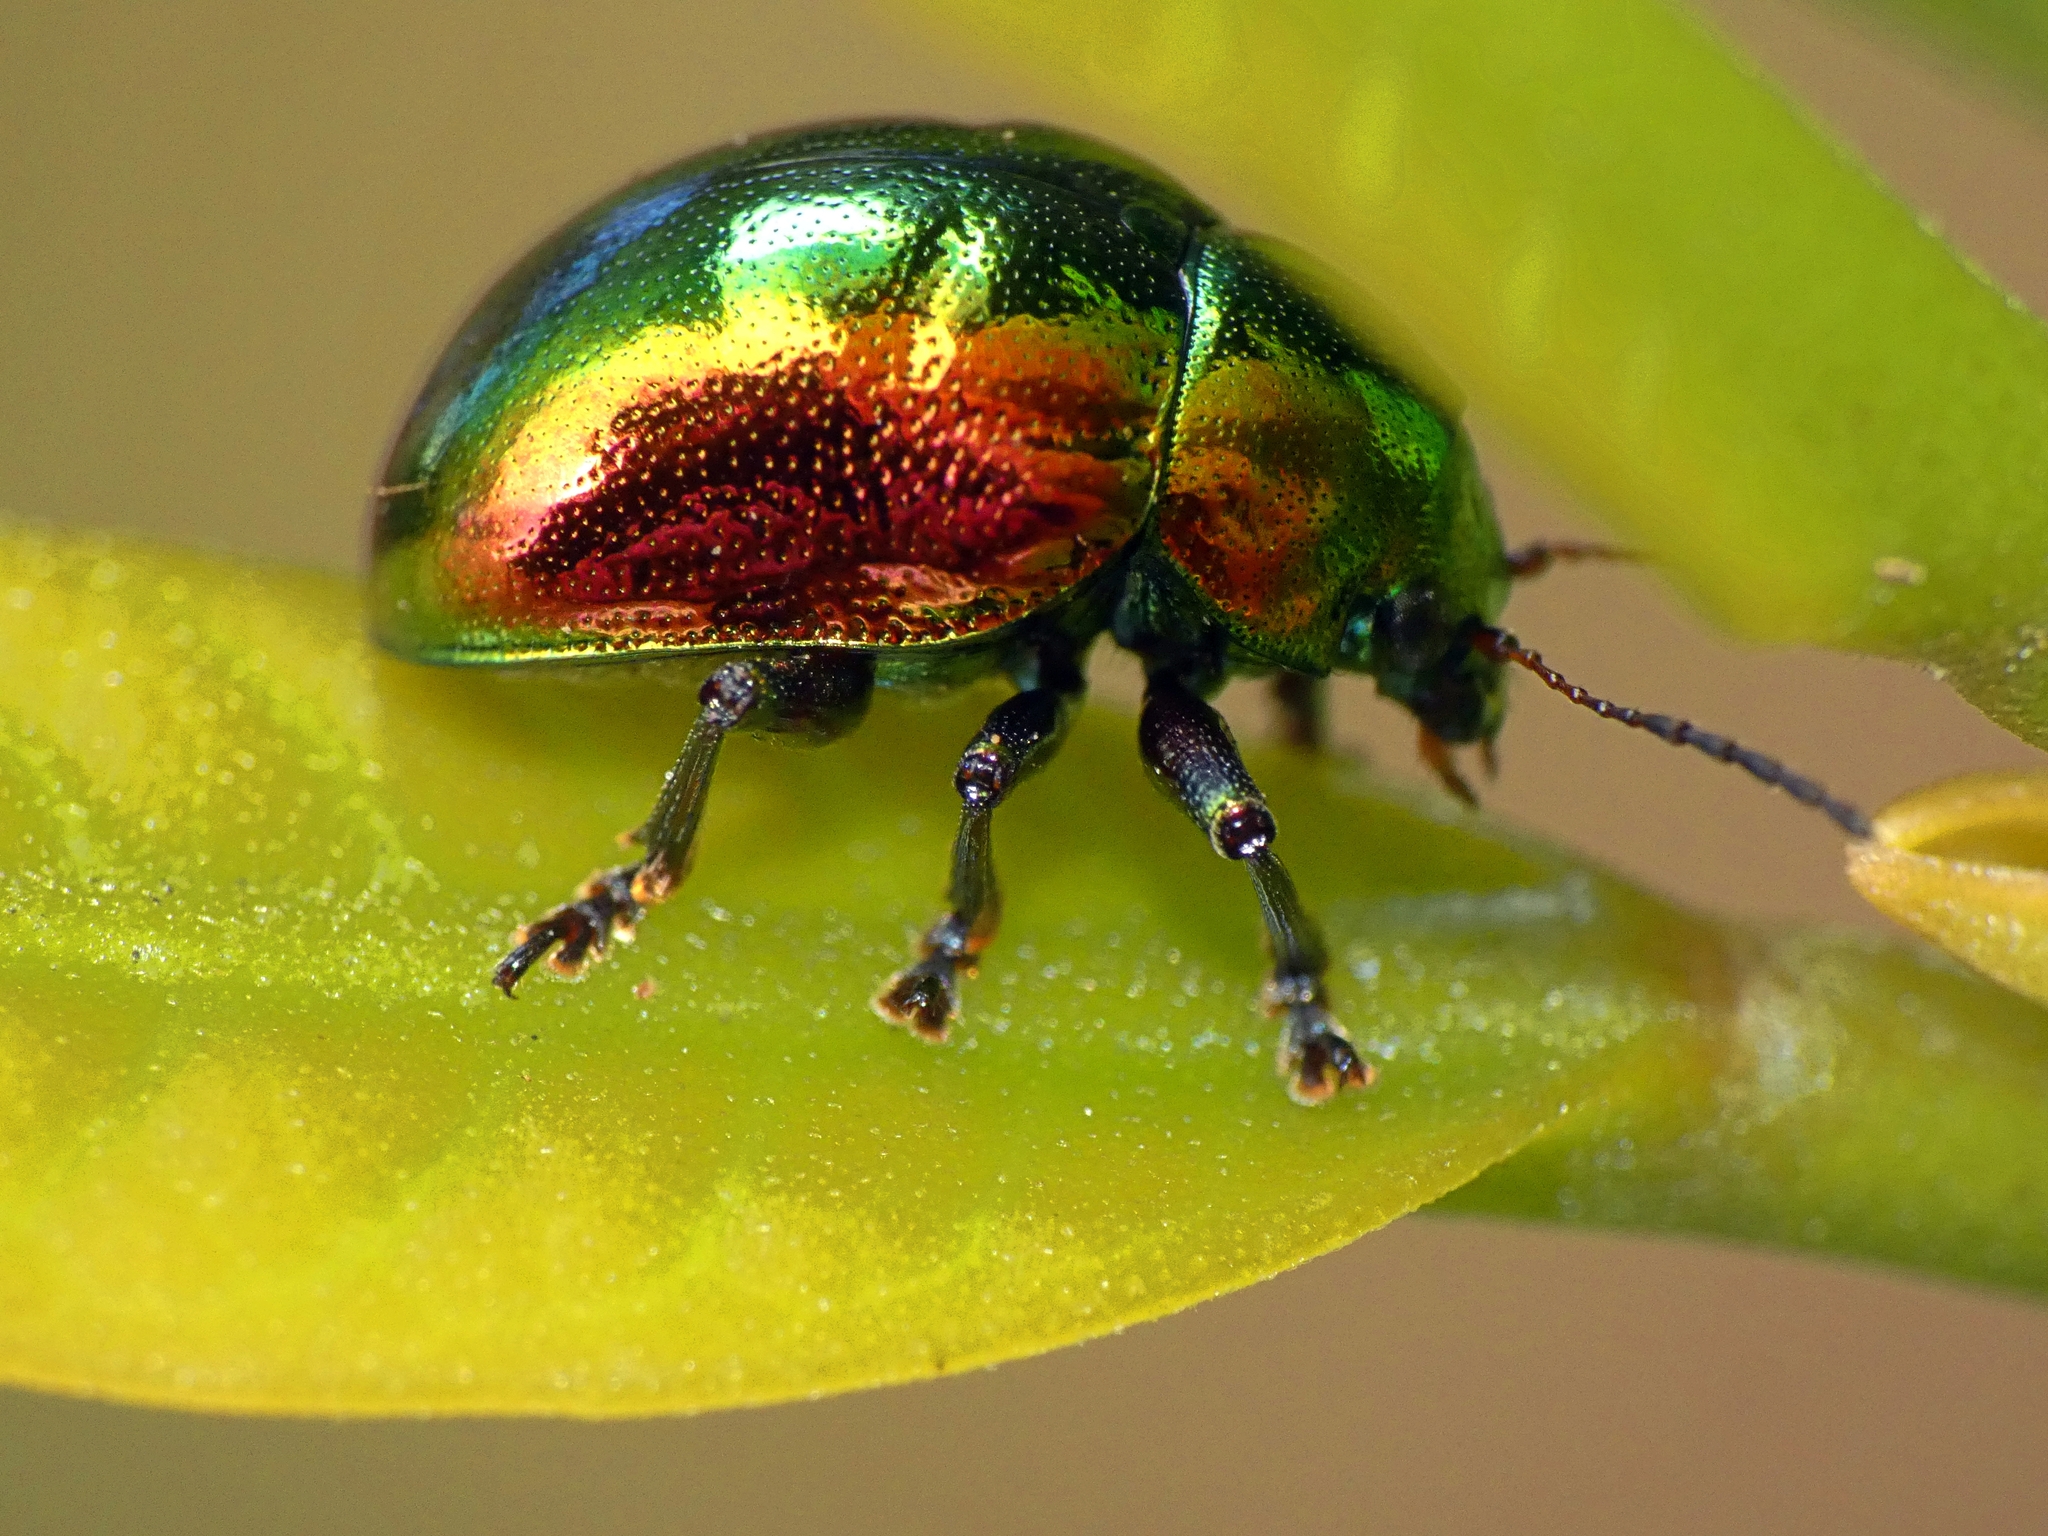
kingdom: Animalia
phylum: Arthropoda
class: Insecta
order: Coleoptera
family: Chrysomelidae
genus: Colasposoma
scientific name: Colasposoma sellatum
